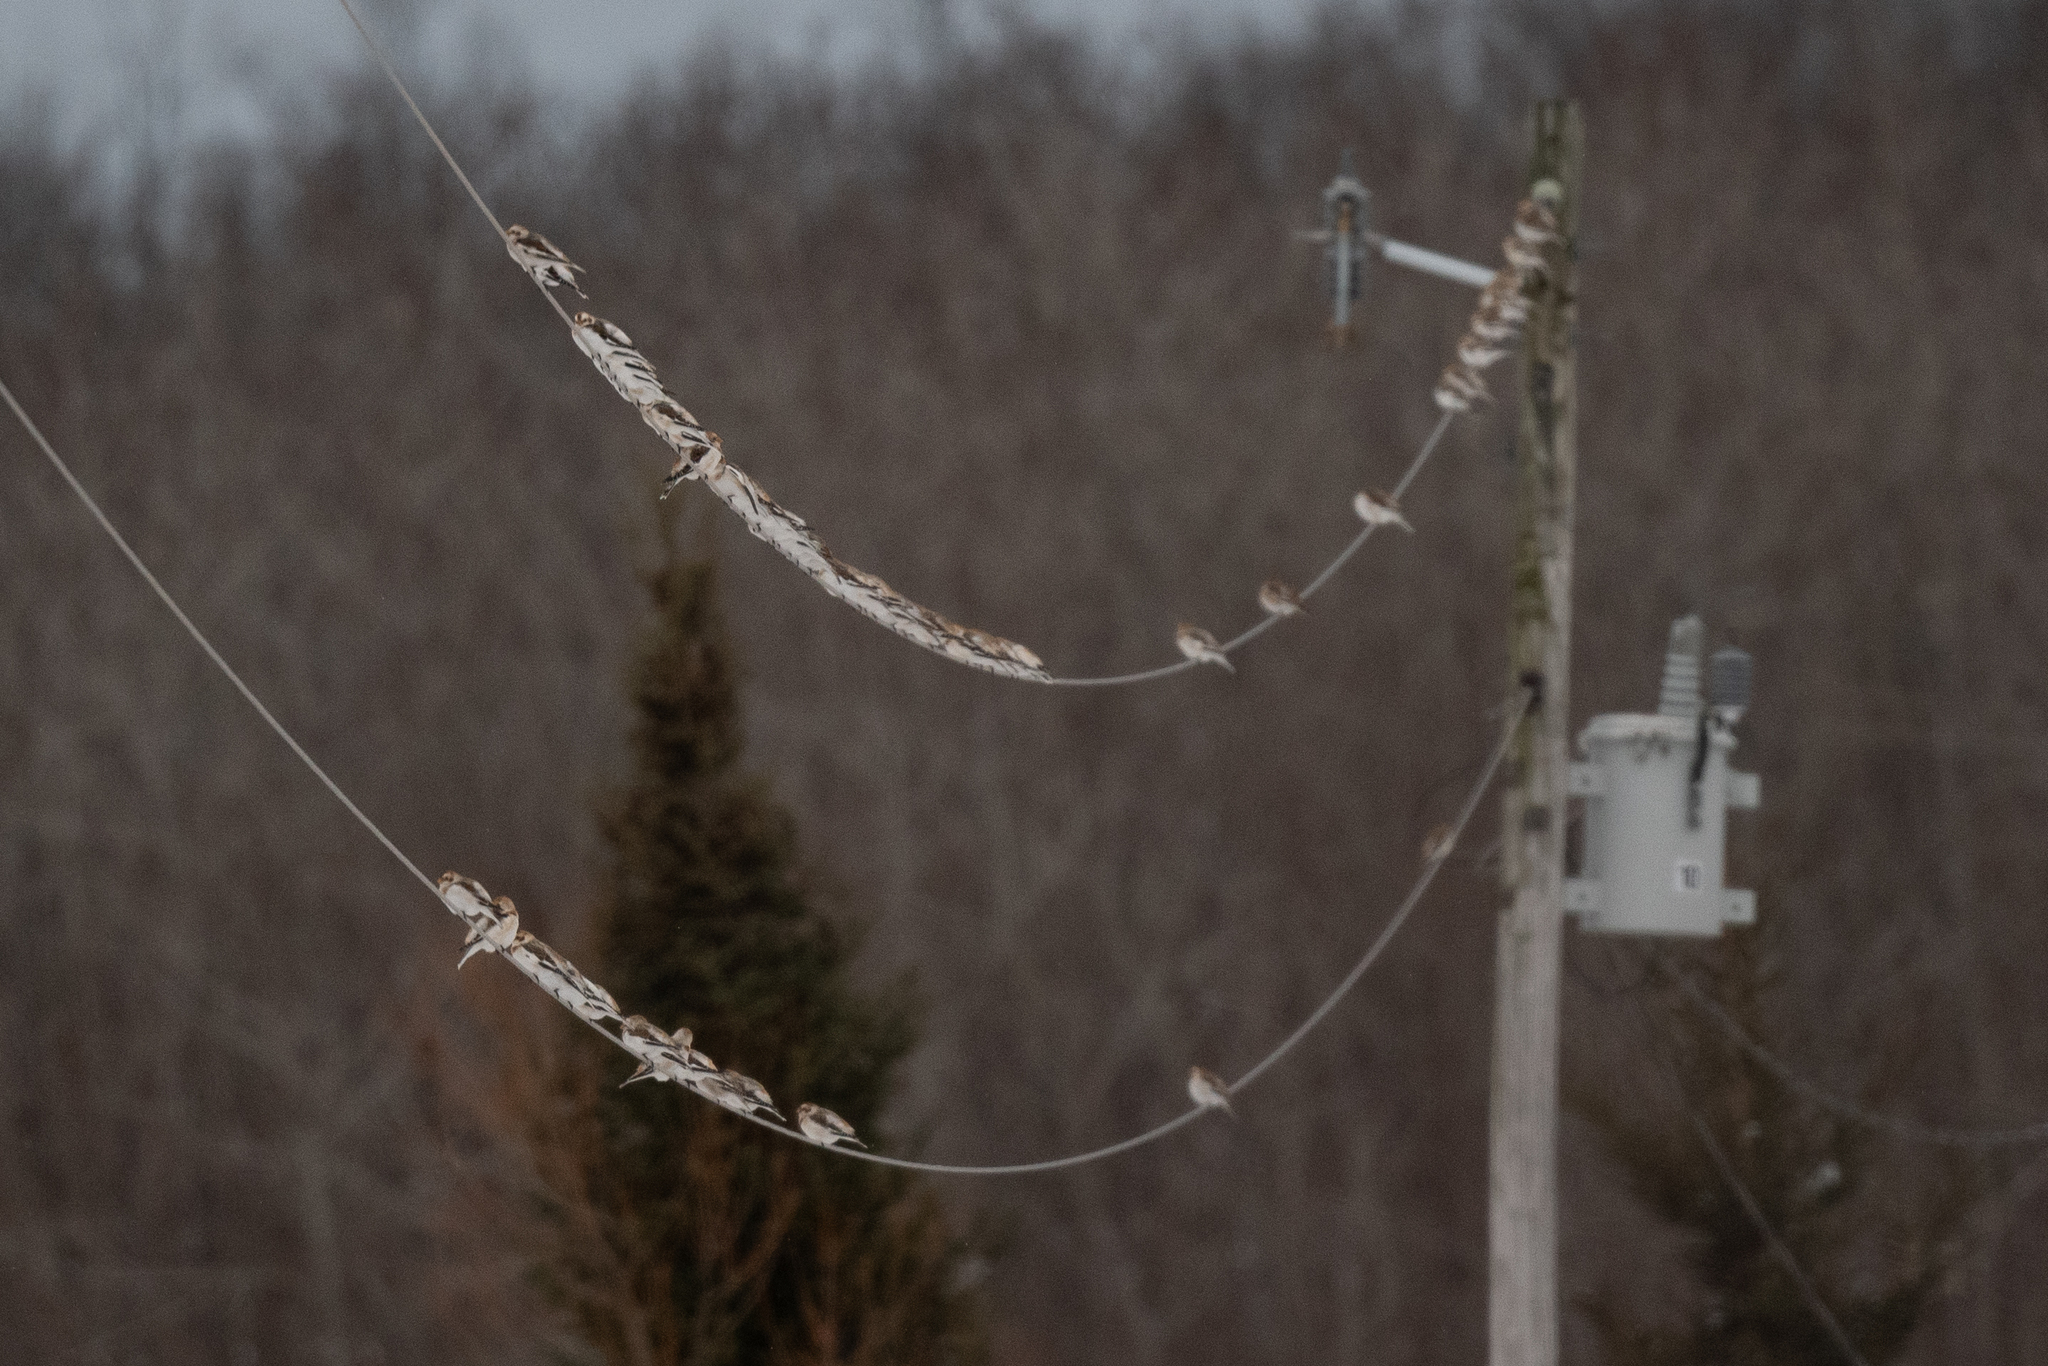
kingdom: Animalia
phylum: Chordata
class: Aves
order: Passeriformes
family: Calcariidae
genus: Plectrophenax
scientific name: Plectrophenax nivalis
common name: Snow bunting
